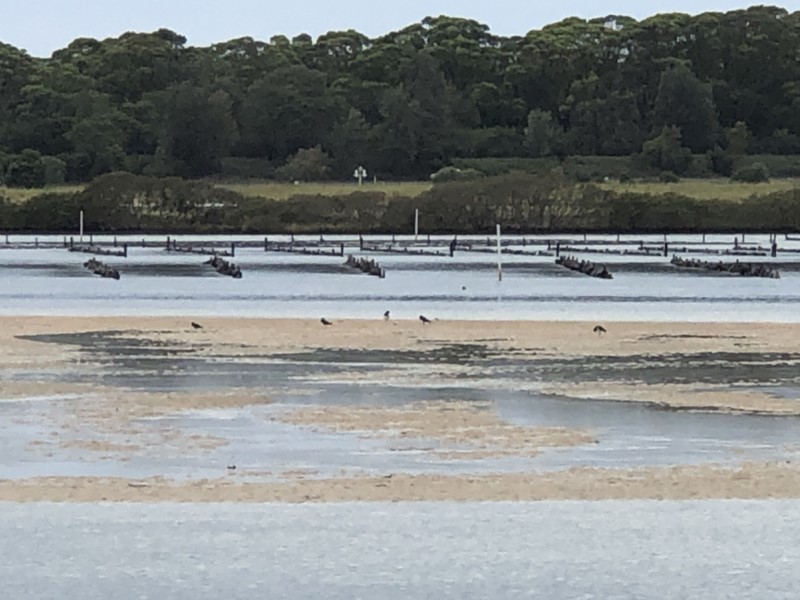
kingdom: Animalia
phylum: Chordata
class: Aves
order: Charadriiformes
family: Haematopodidae
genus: Haematopus
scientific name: Haematopus longirostris
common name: Pied oystercatcher
